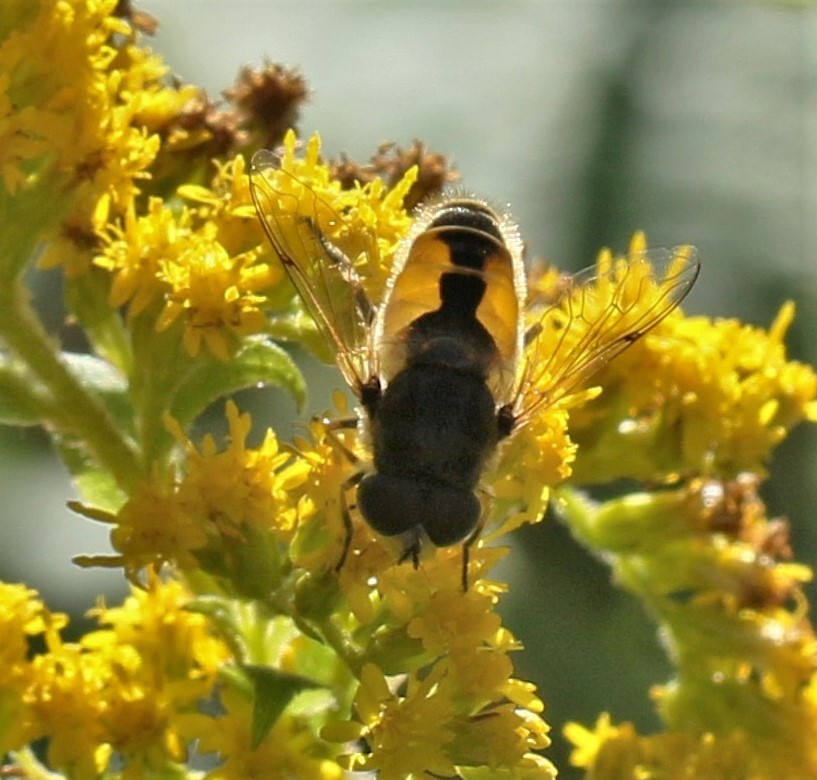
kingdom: Animalia
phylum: Arthropoda
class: Insecta
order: Diptera
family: Syrphidae
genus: Eristalis
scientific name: Eristalis arbustorum
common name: Hover fly
